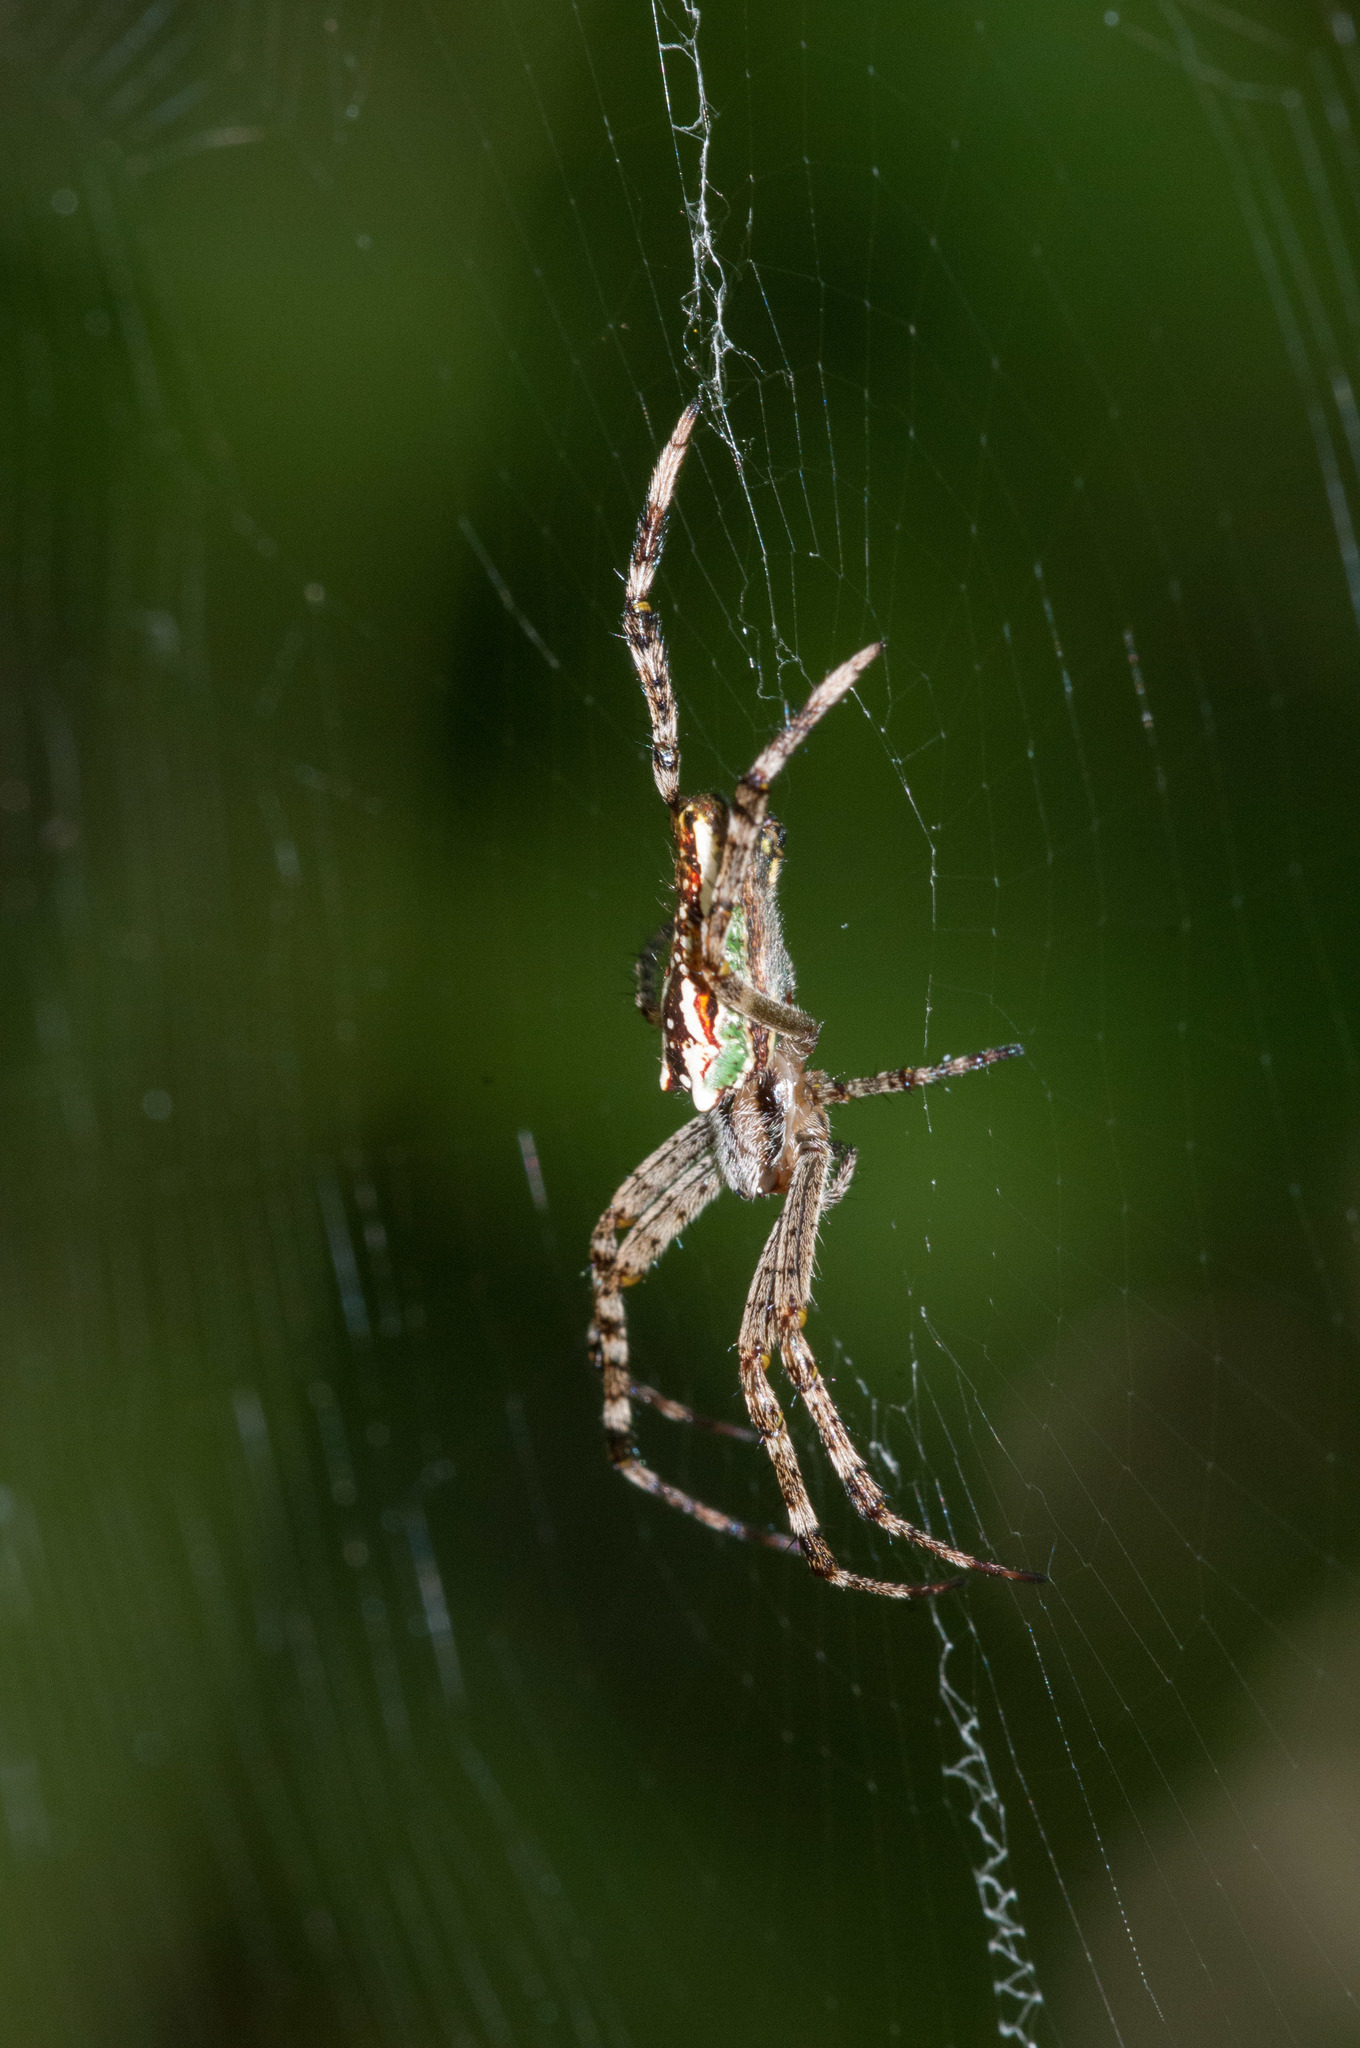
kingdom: Animalia
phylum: Arthropoda
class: Arachnida
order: Araneae
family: Araneidae
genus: Plebs
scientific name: Plebs bradleyi
